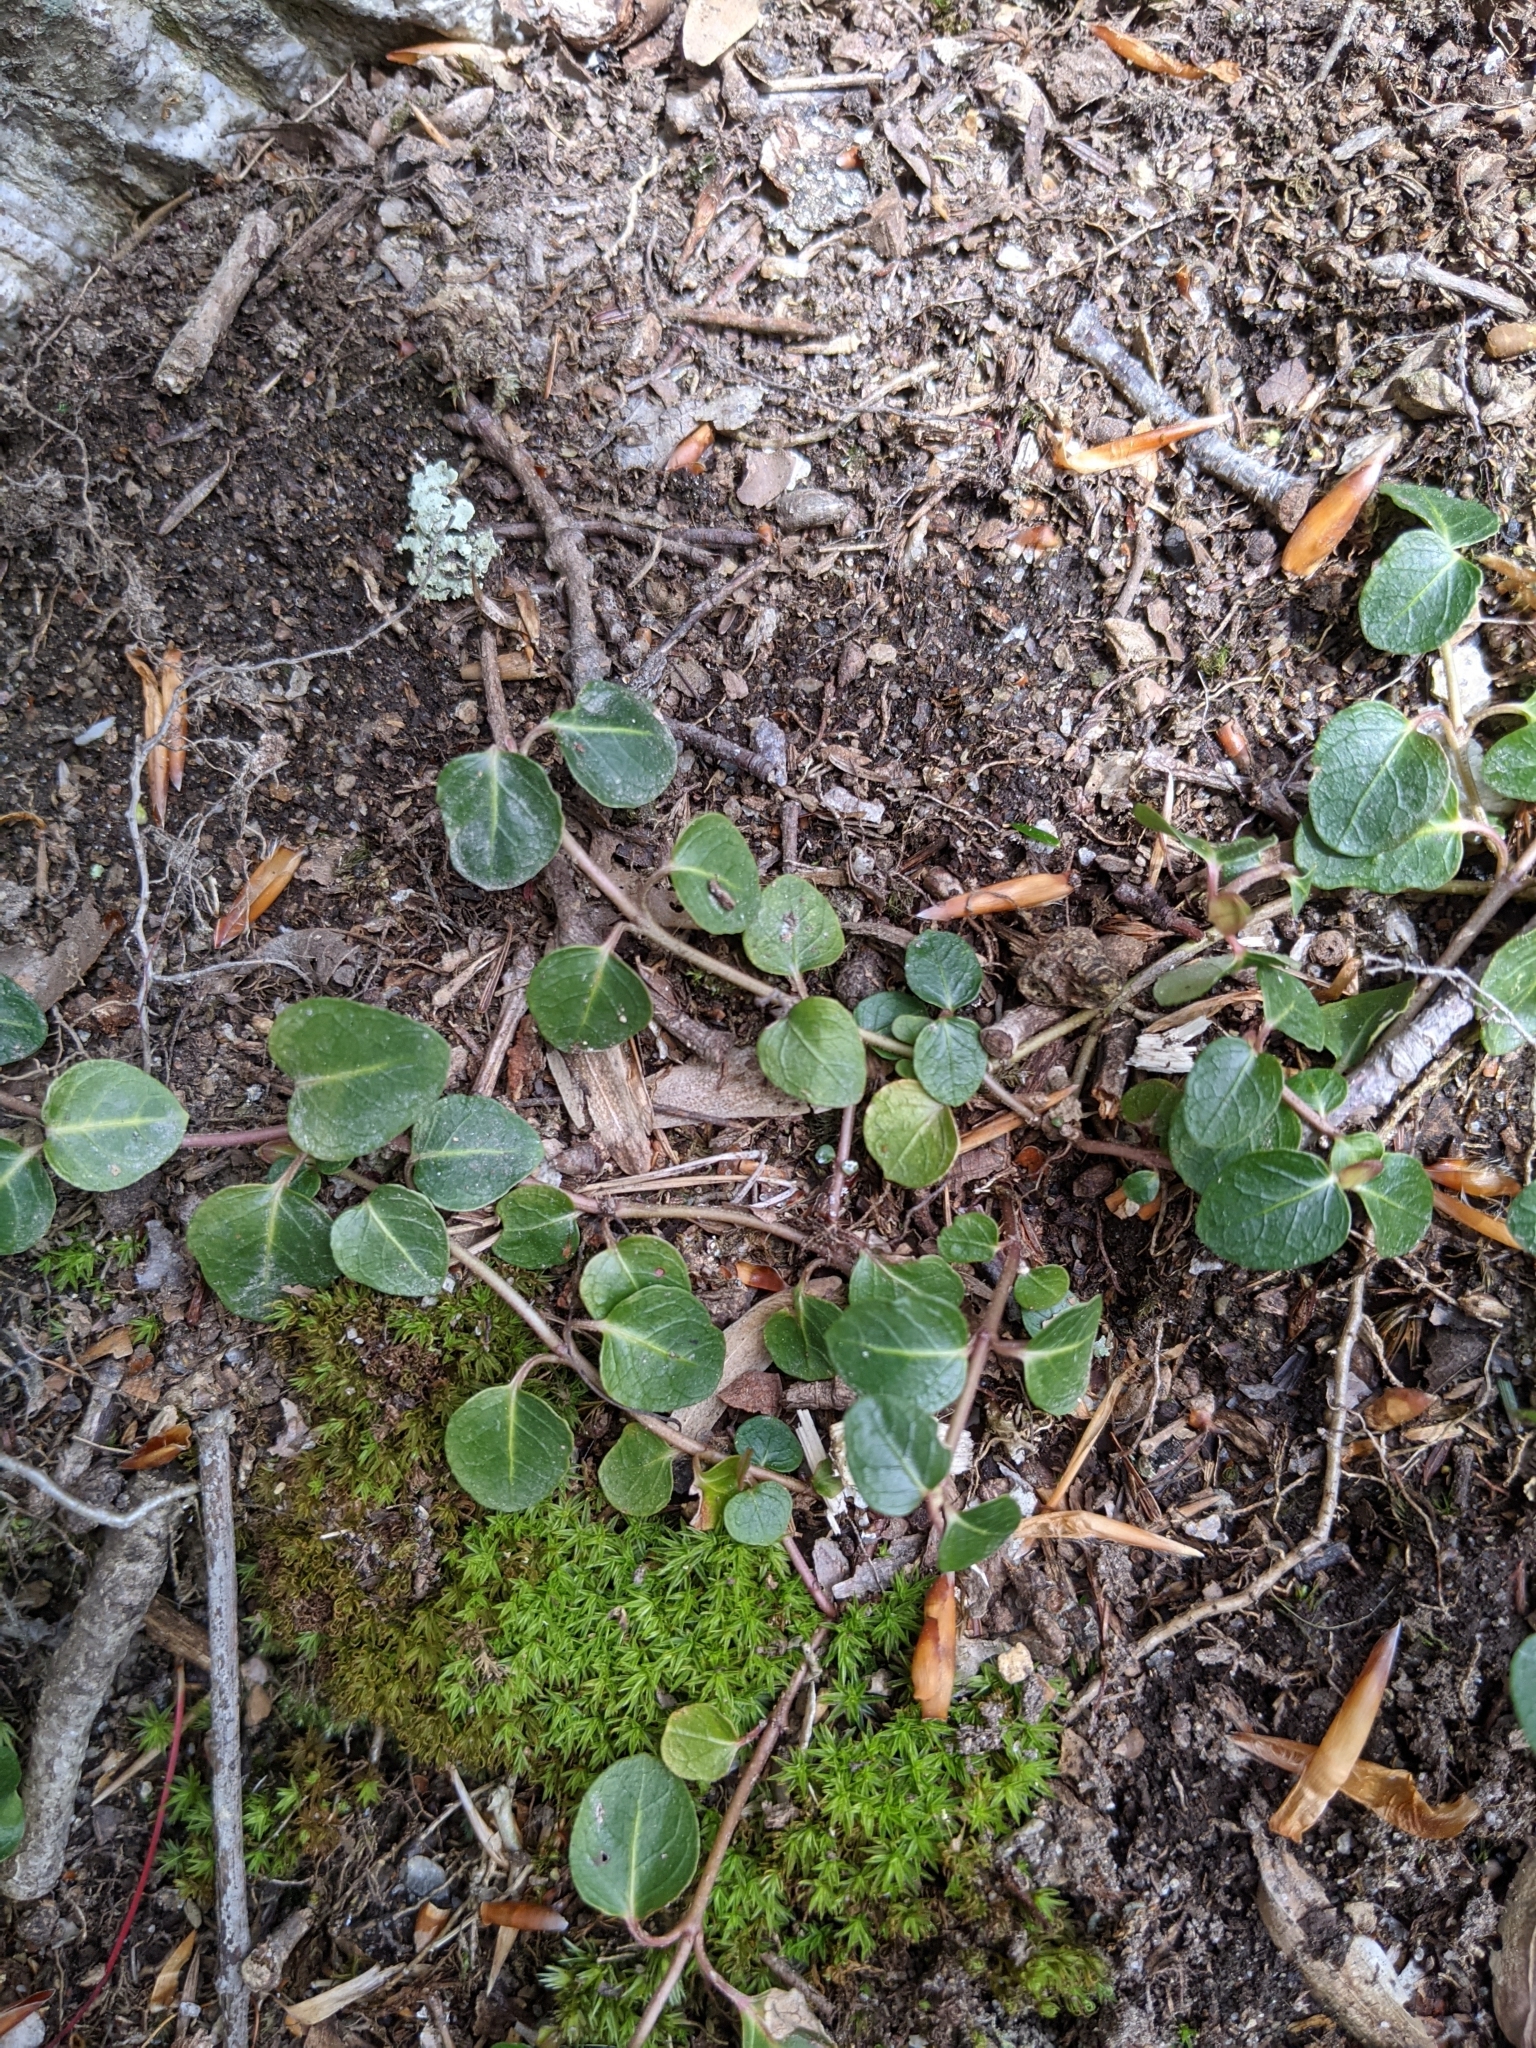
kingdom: Plantae
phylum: Tracheophyta
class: Magnoliopsida
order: Gentianales
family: Rubiaceae
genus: Mitchella
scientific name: Mitchella repens
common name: Partridge-berry
